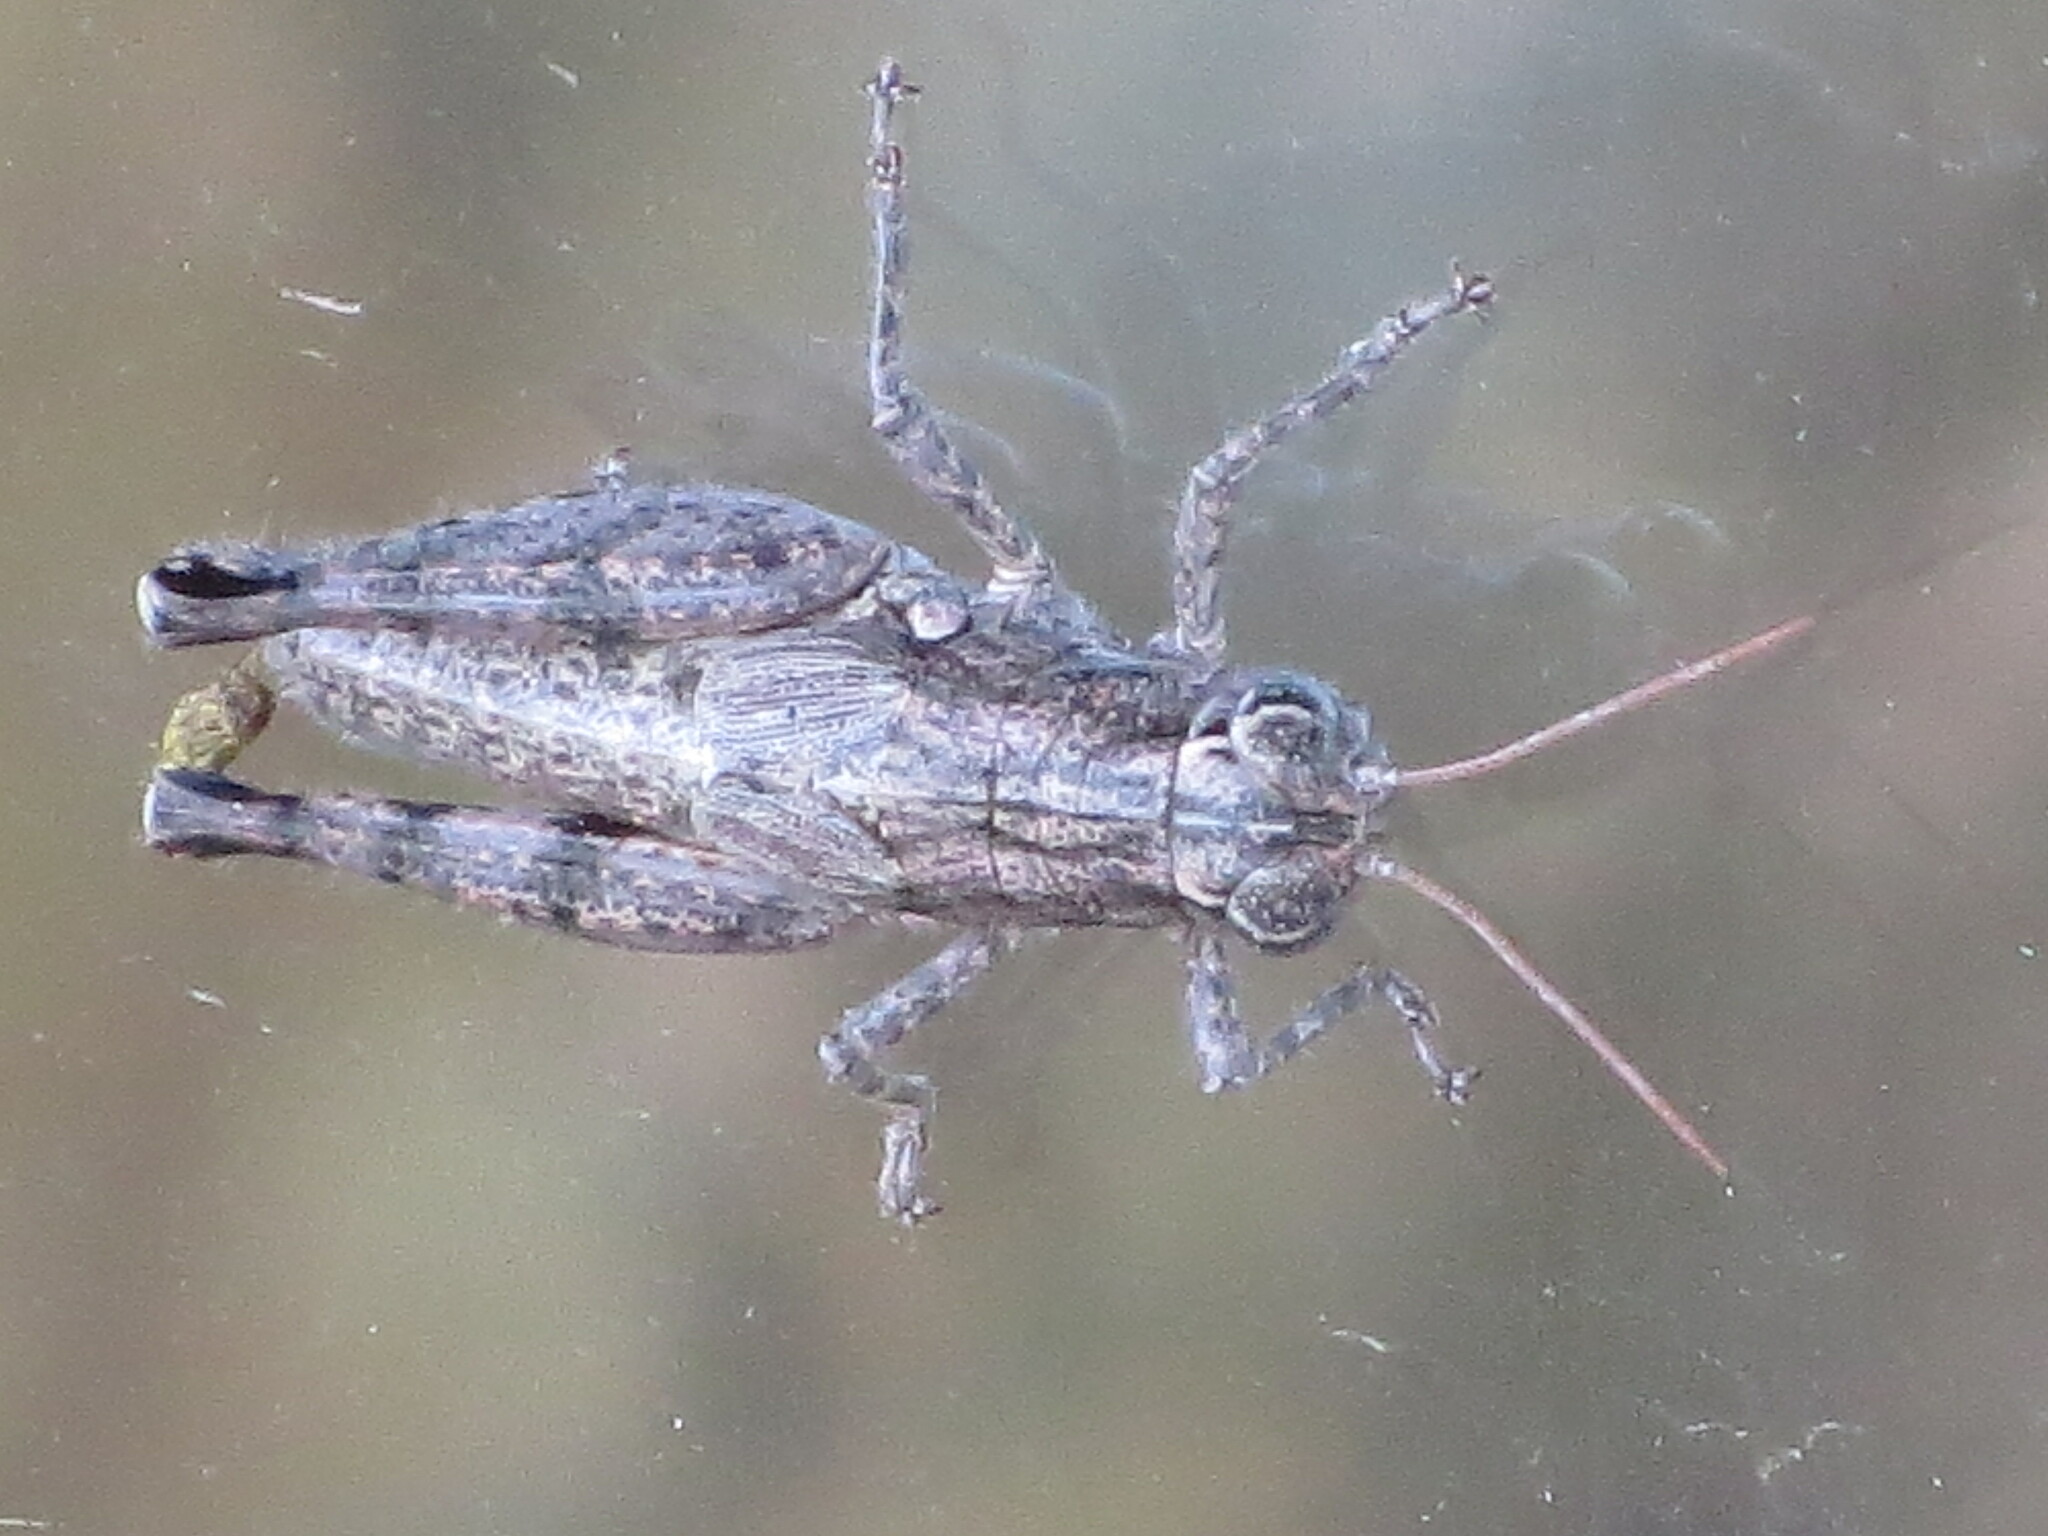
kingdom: Animalia
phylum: Arthropoda
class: Insecta
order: Orthoptera
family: Acrididae
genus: Agroecotettix
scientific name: Agroecotettix modestus
